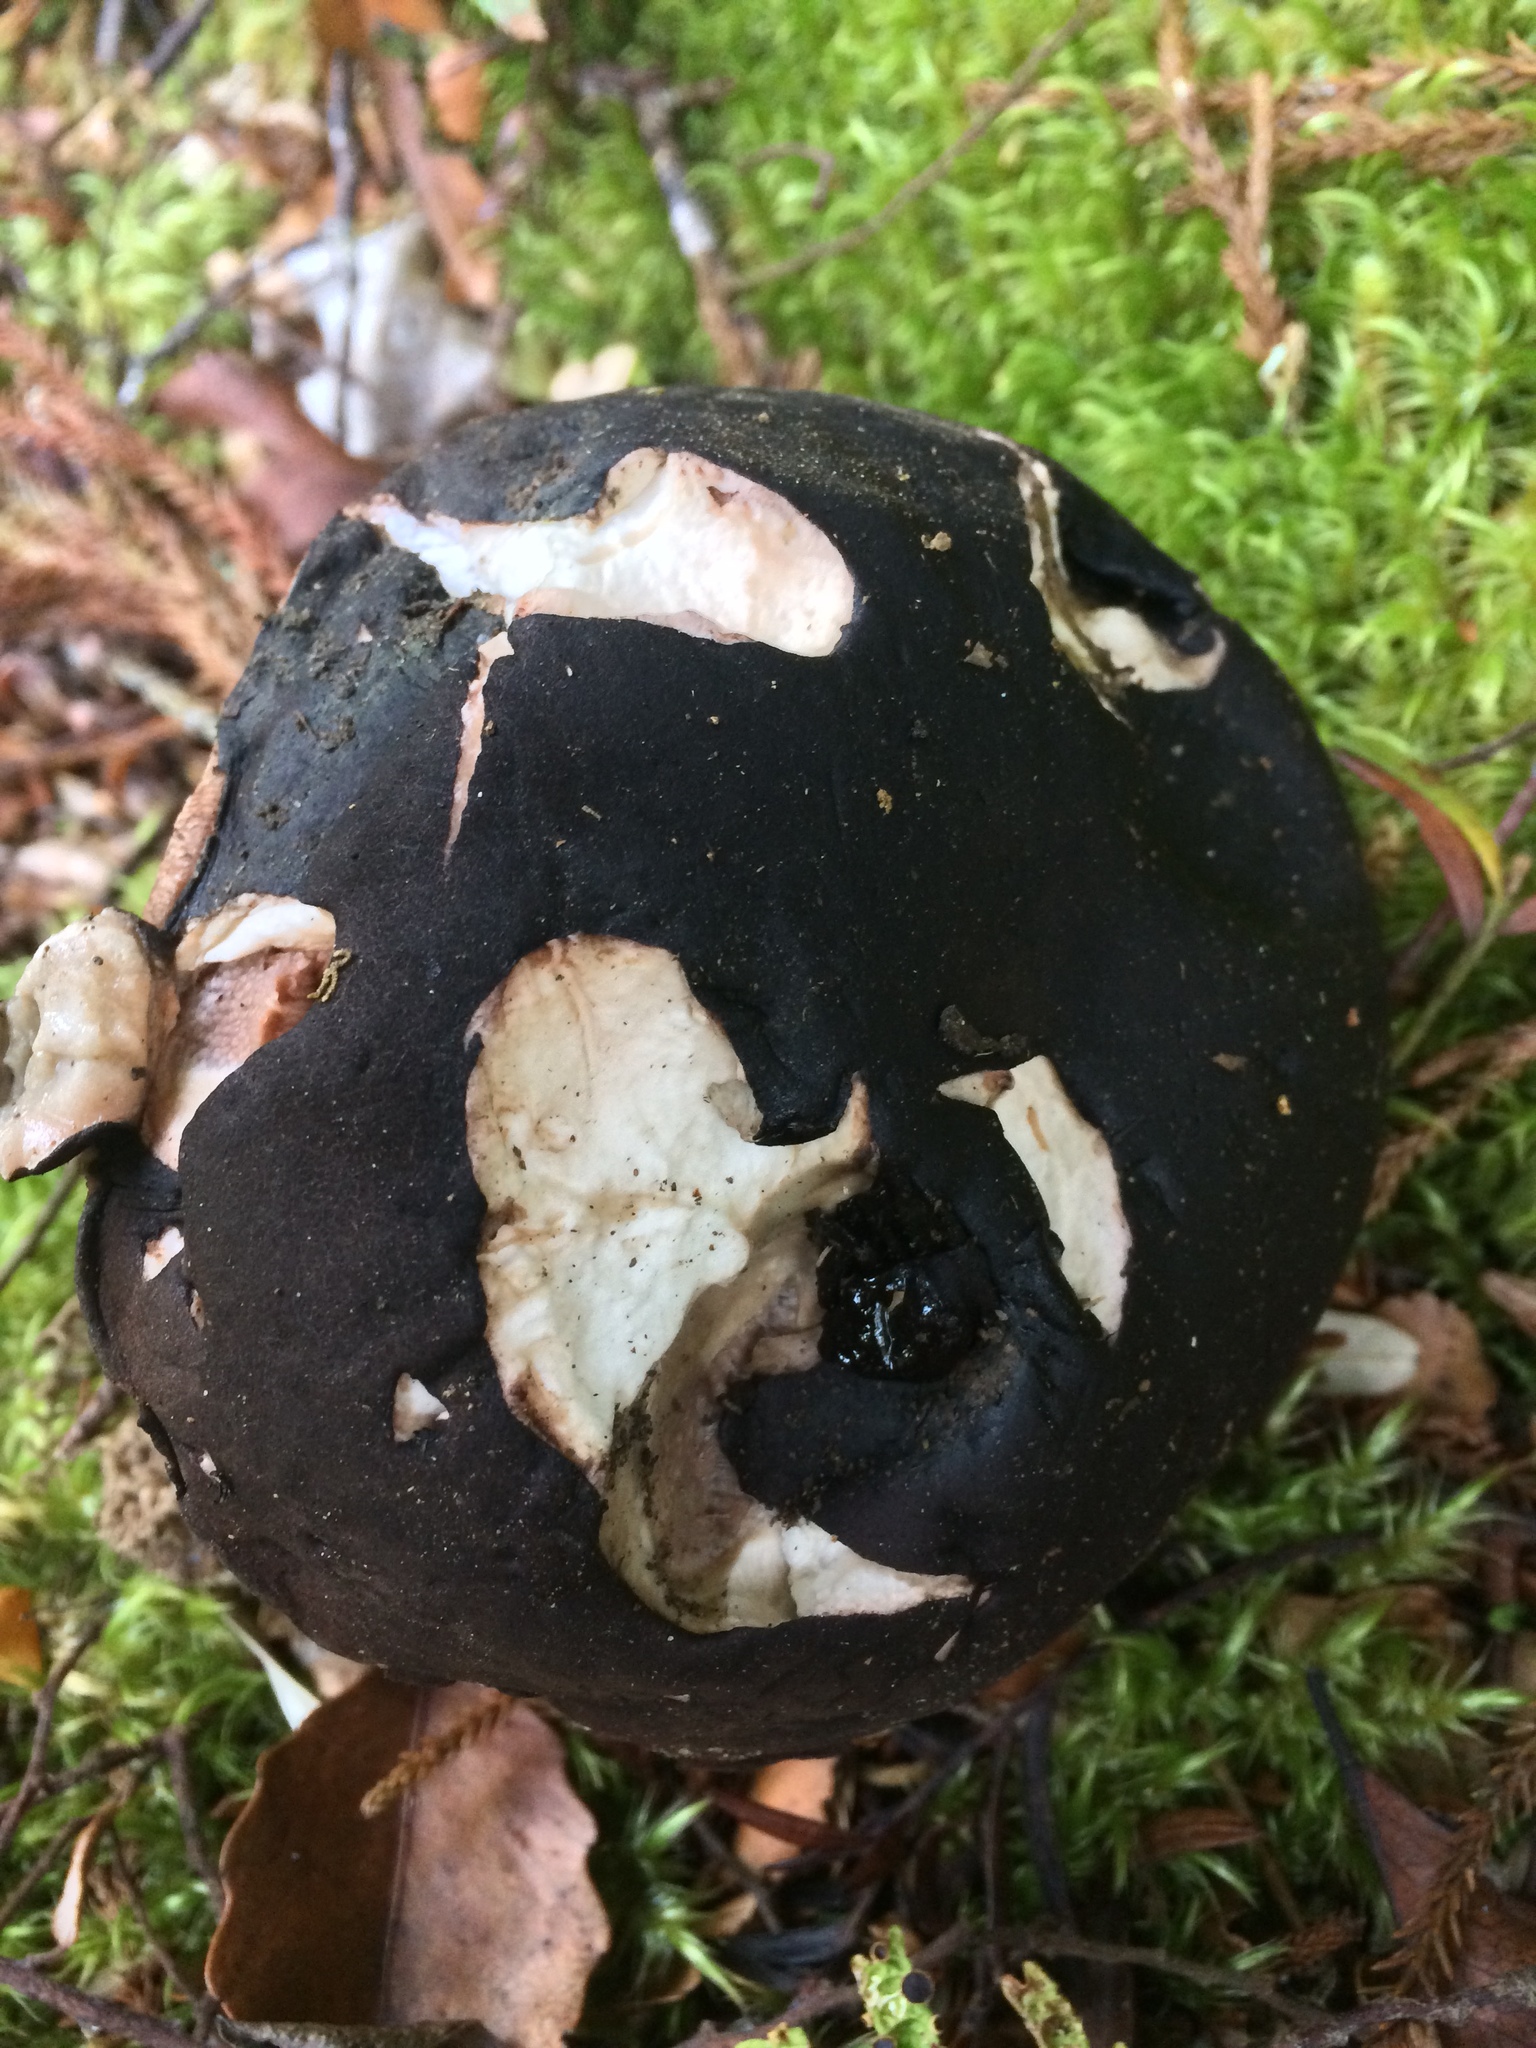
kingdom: Fungi
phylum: Basidiomycota
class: Agaricomycetes
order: Boletales
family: Boletaceae
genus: Porphyrellus
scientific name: Porphyrellus formosus
